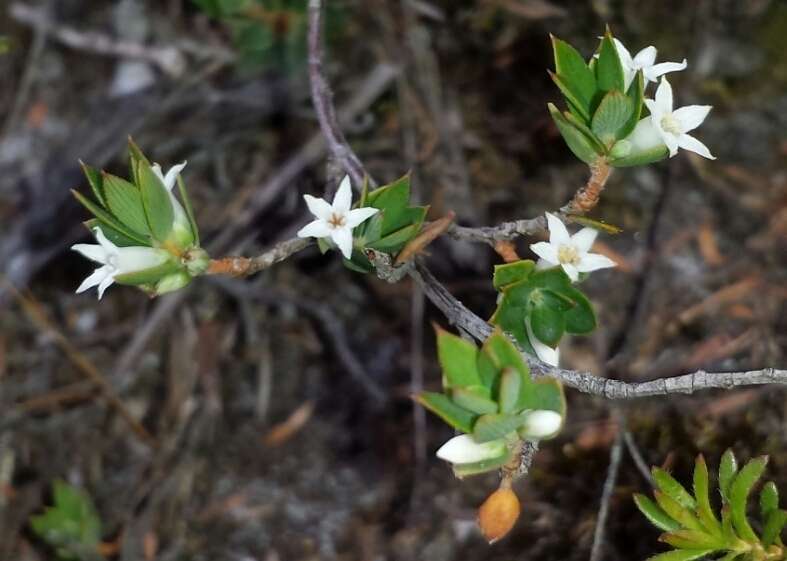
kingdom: Plantae
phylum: Tracheophyta
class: Magnoliopsida
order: Ericales
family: Ericaceae
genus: Brachyloma
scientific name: Brachyloma ciliatum
